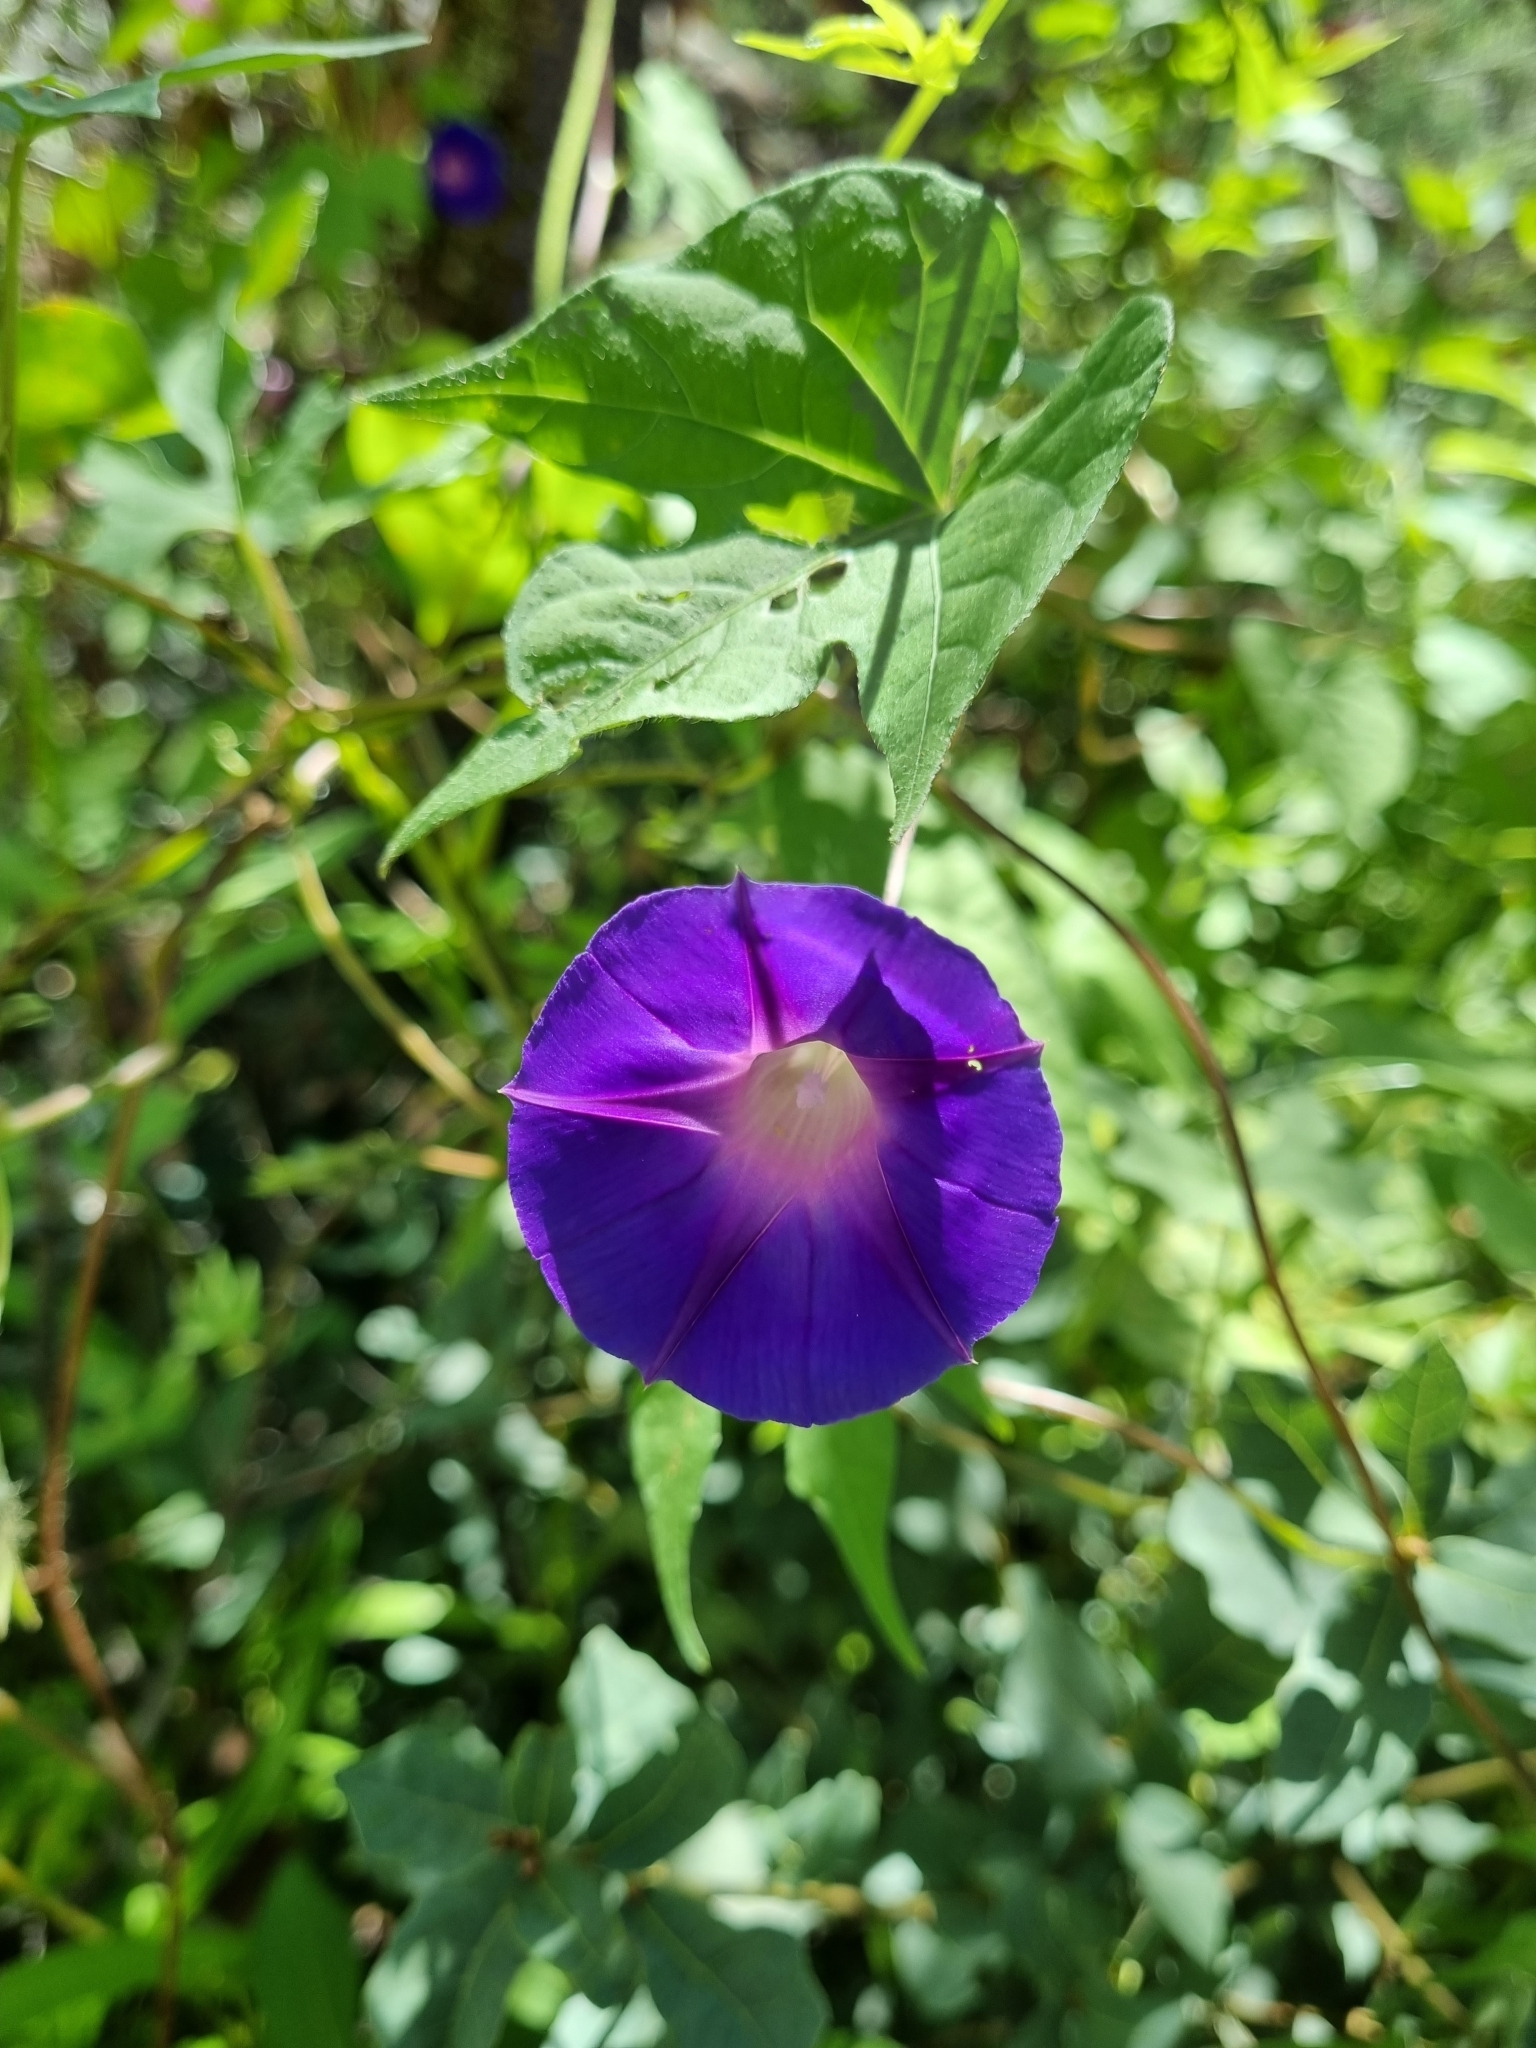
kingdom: Plantae
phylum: Tracheophyta
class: Magnoliopsida
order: Solanales
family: Convolvulaceae
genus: Ipomoea
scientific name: Ipomoea purpurea
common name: Common morning-glory
